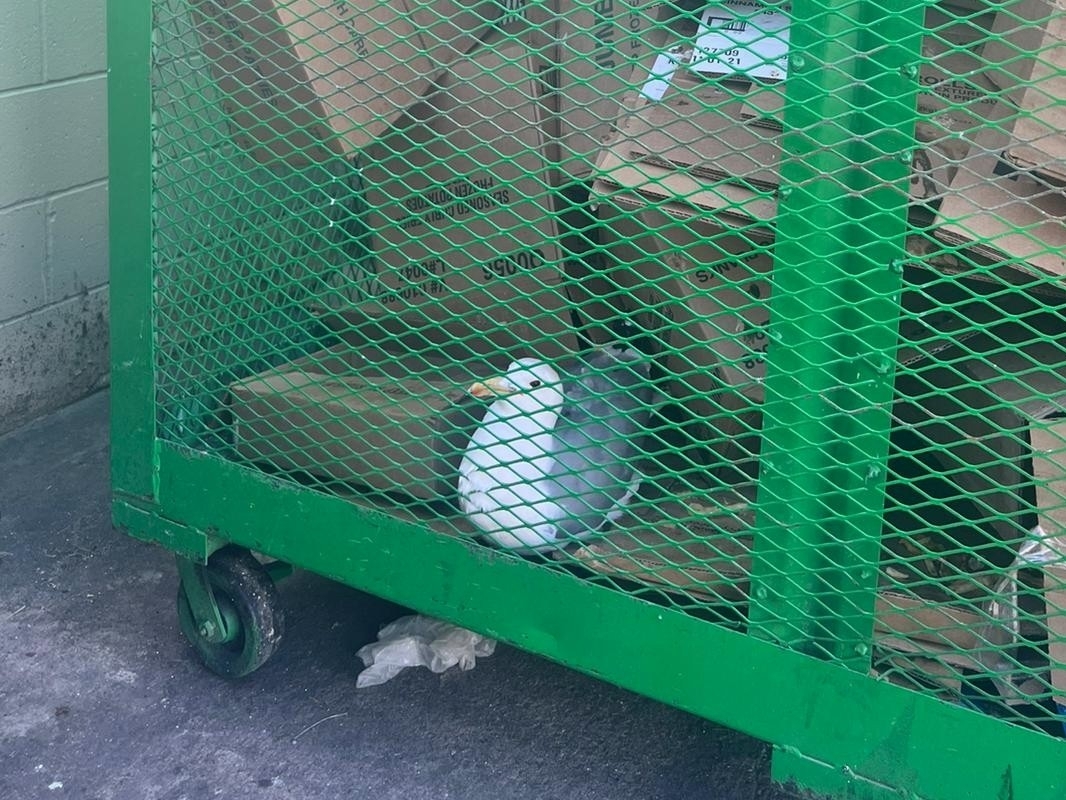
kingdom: Animalia
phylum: Chordata
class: Aves
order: Charadriiformes
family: Laridae
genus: Larus
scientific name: Larus californicus
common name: California gull
